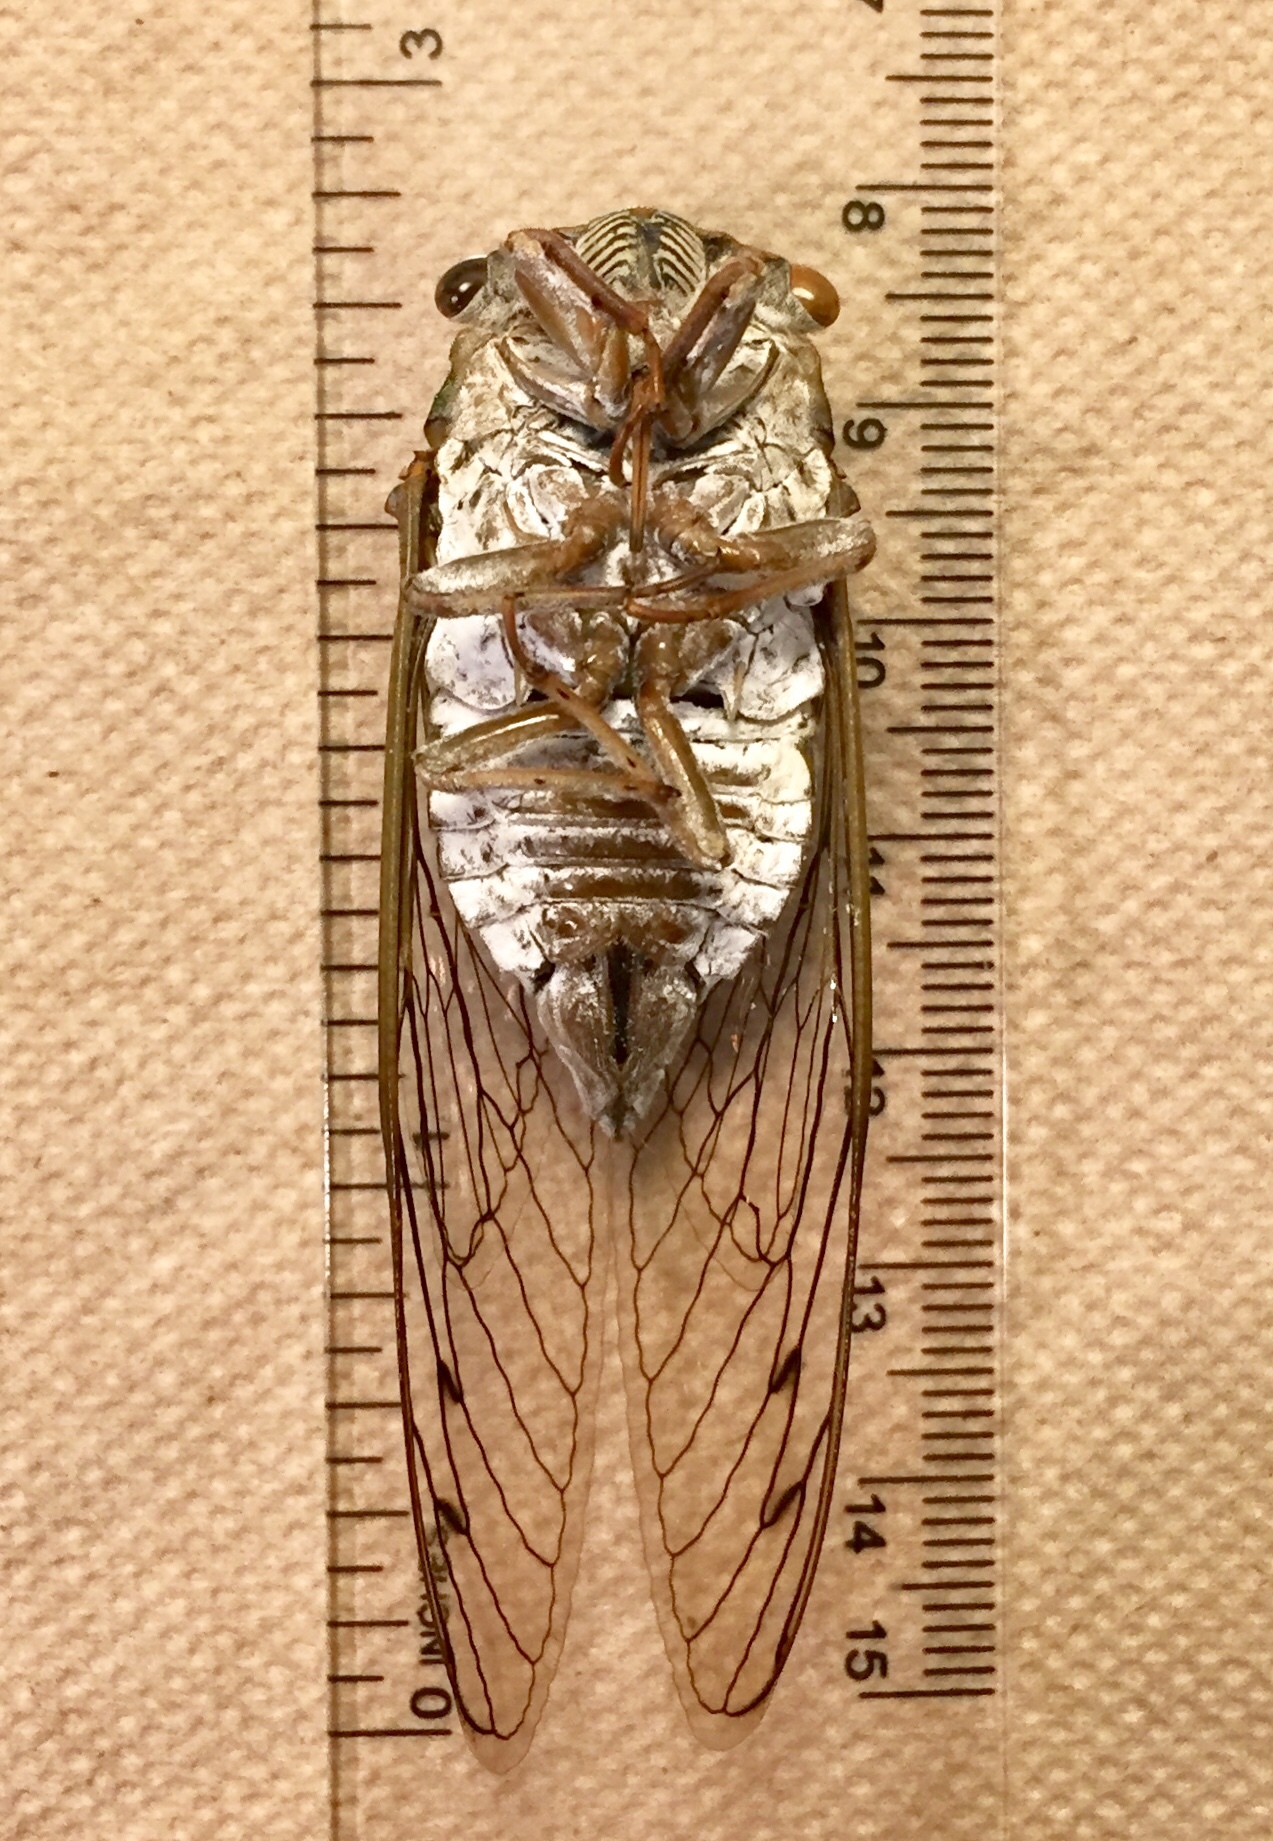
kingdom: Animalia
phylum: Arthropoda
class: Insecta
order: Hemiptera
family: Cicadidae
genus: Diceroprocta
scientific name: Diceroprocta grossa
